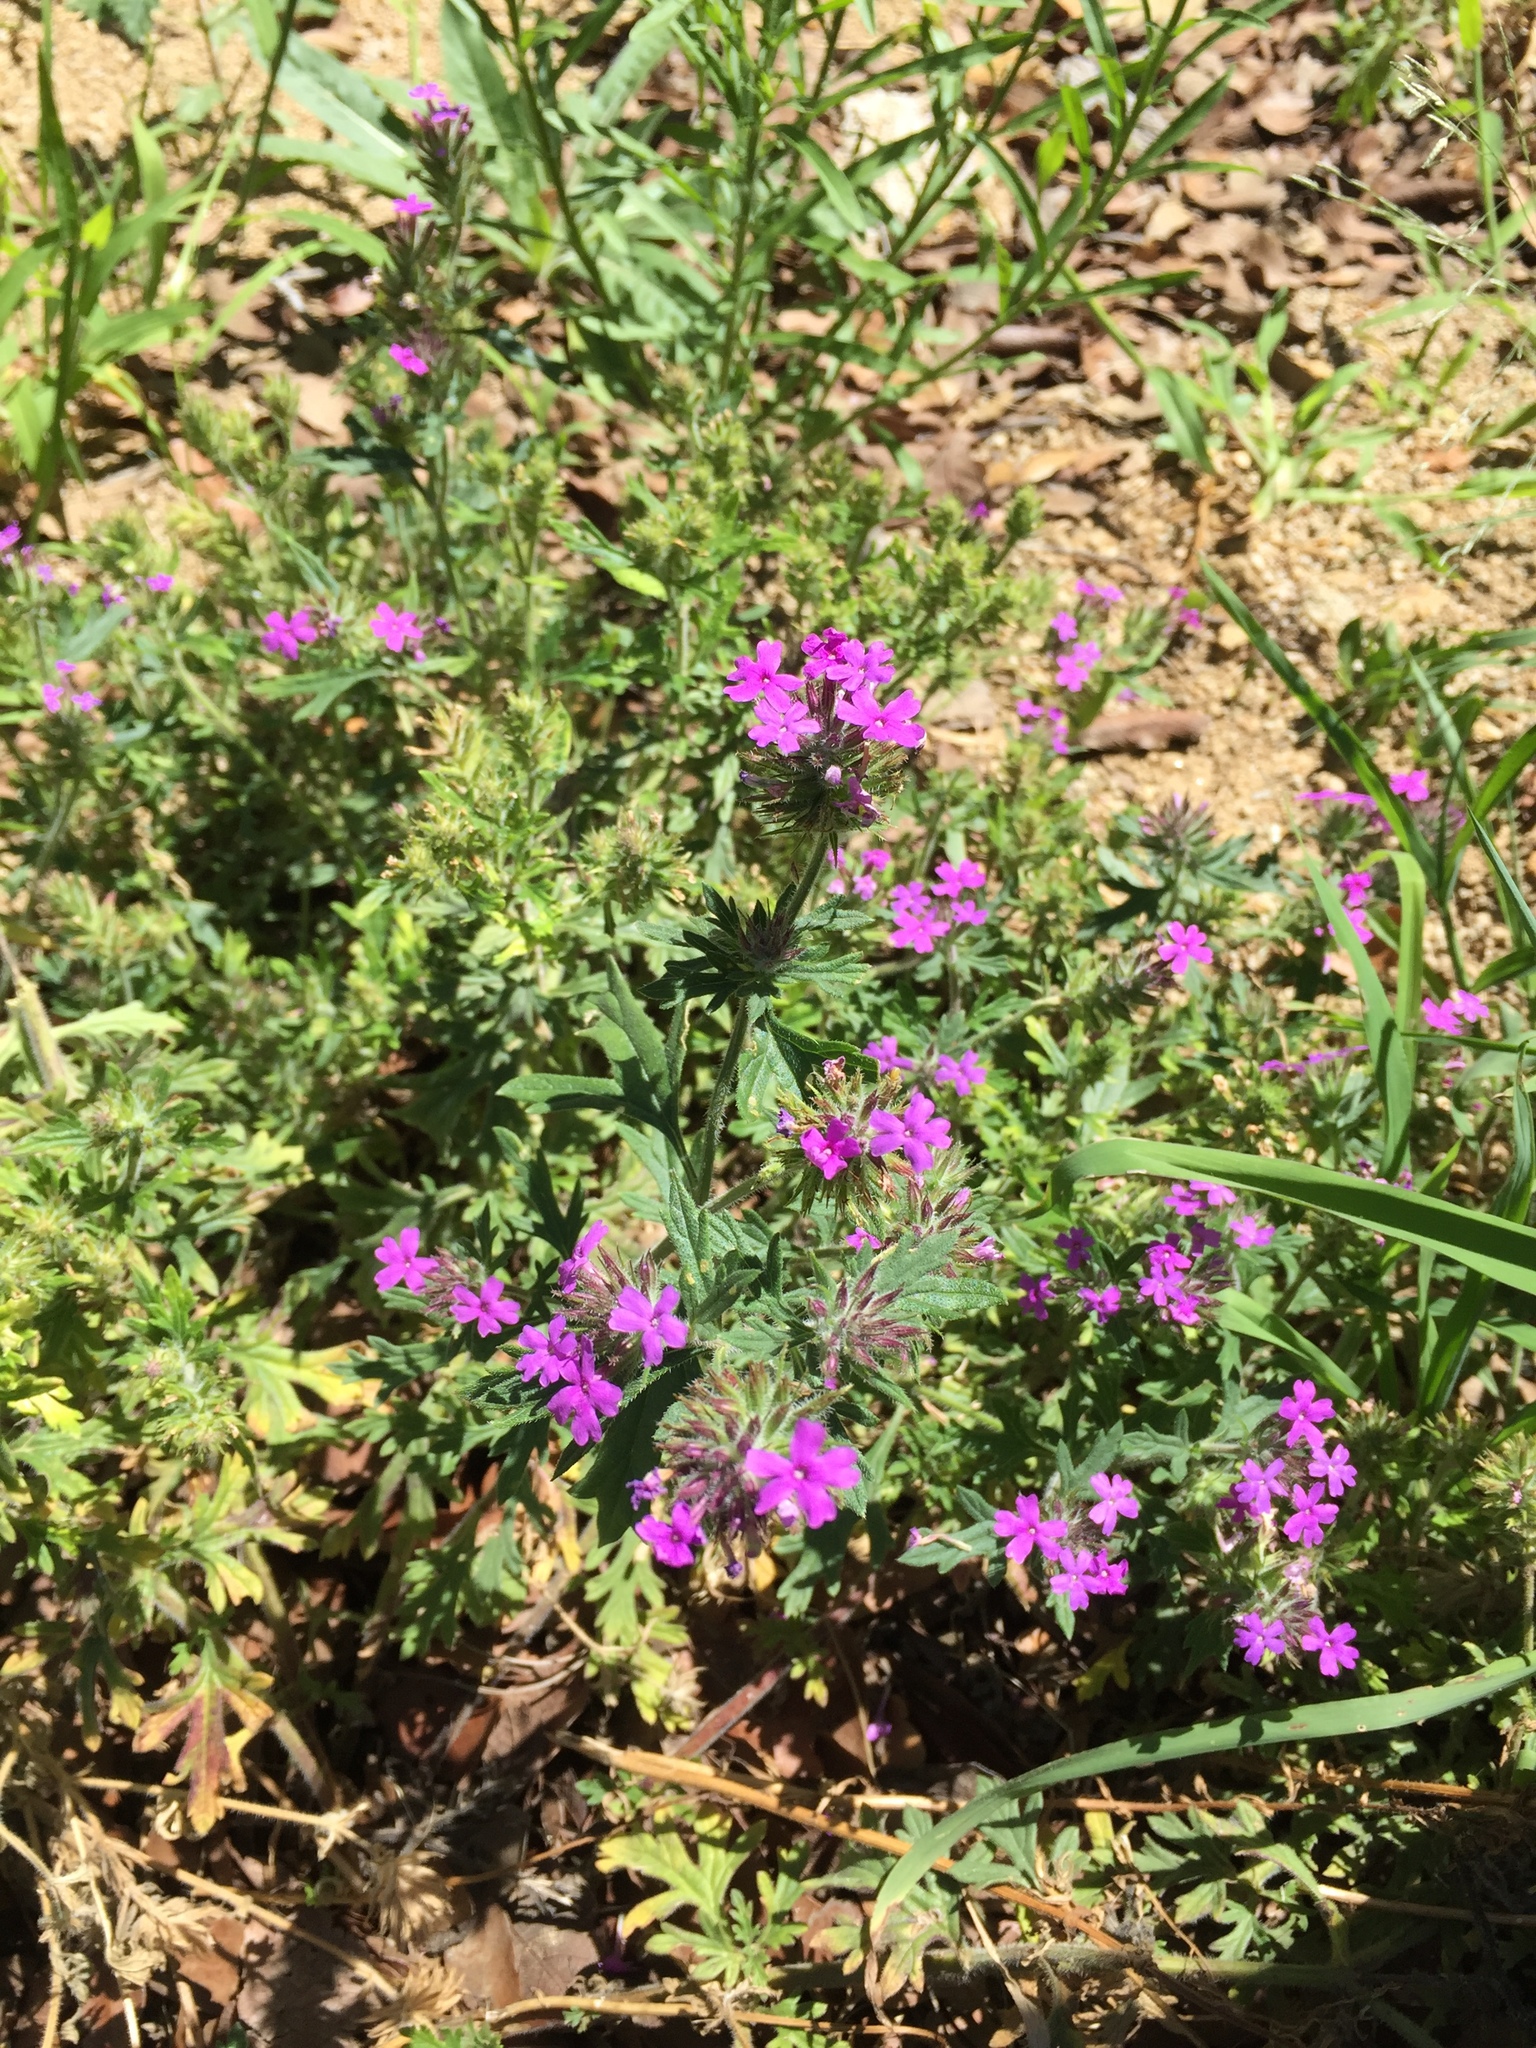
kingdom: Plantae
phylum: Tracheophyta
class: Magnoliopsida
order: Lamiales
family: Verbenaceae
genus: Verbena
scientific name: Verbena chiricahensis
